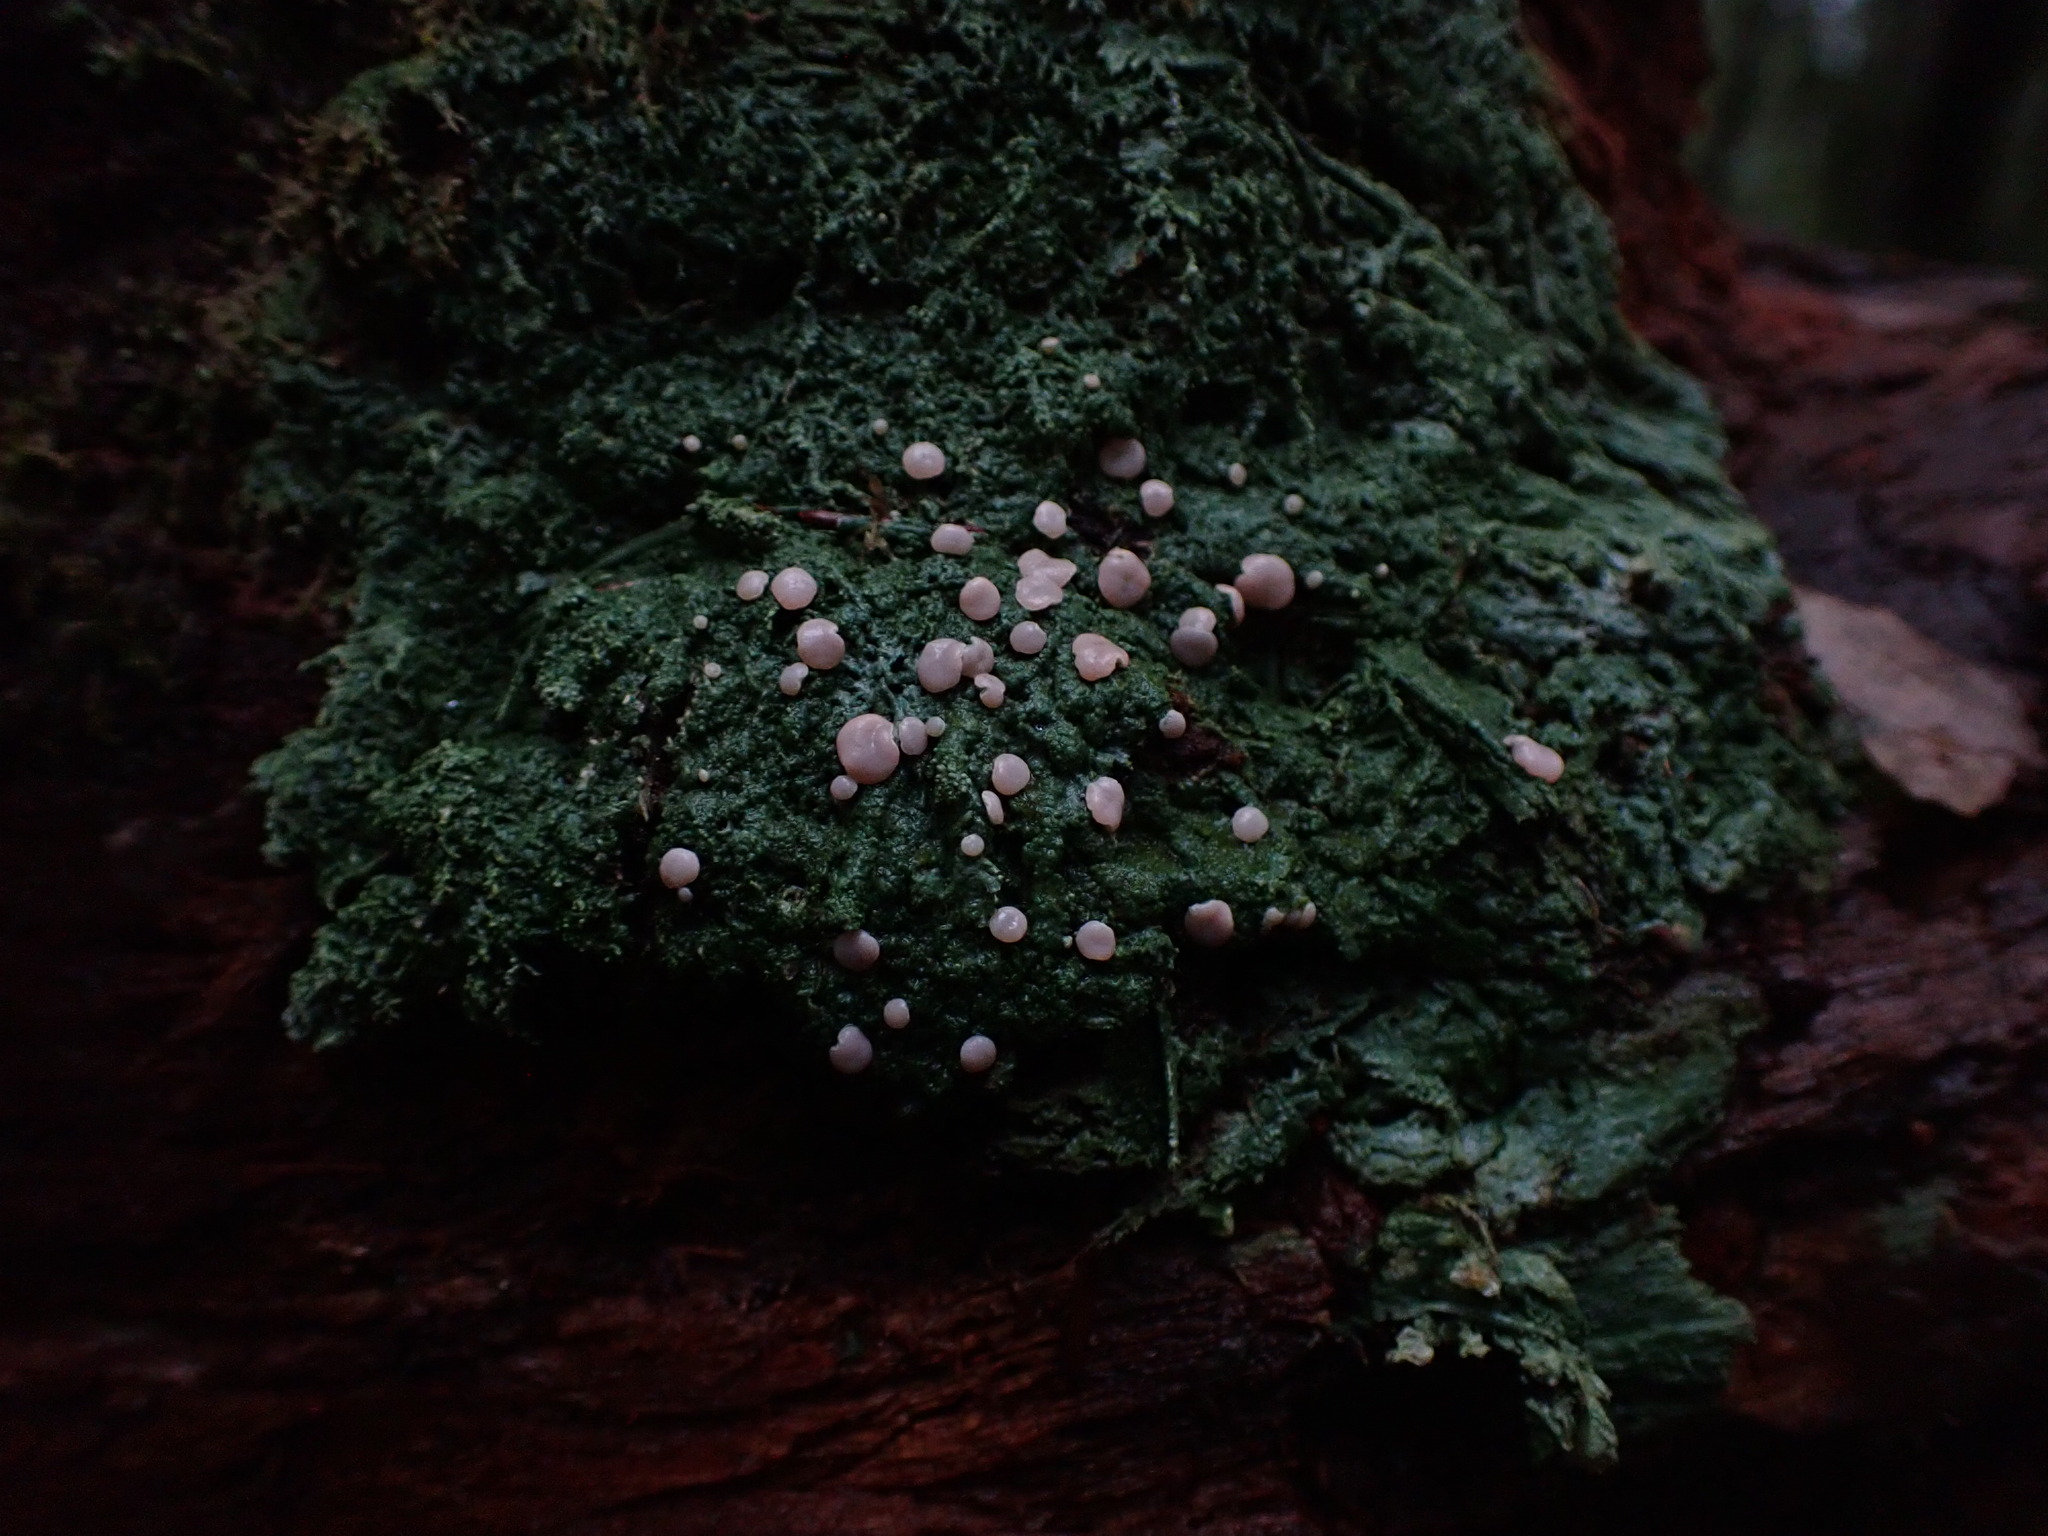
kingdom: Fungi
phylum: Ascomycota
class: Lecanoromycetes
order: Pertusariales
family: Icmadophilaceae
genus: Icmadophila
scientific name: Icmadophila ericetorum
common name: Candy lichen
